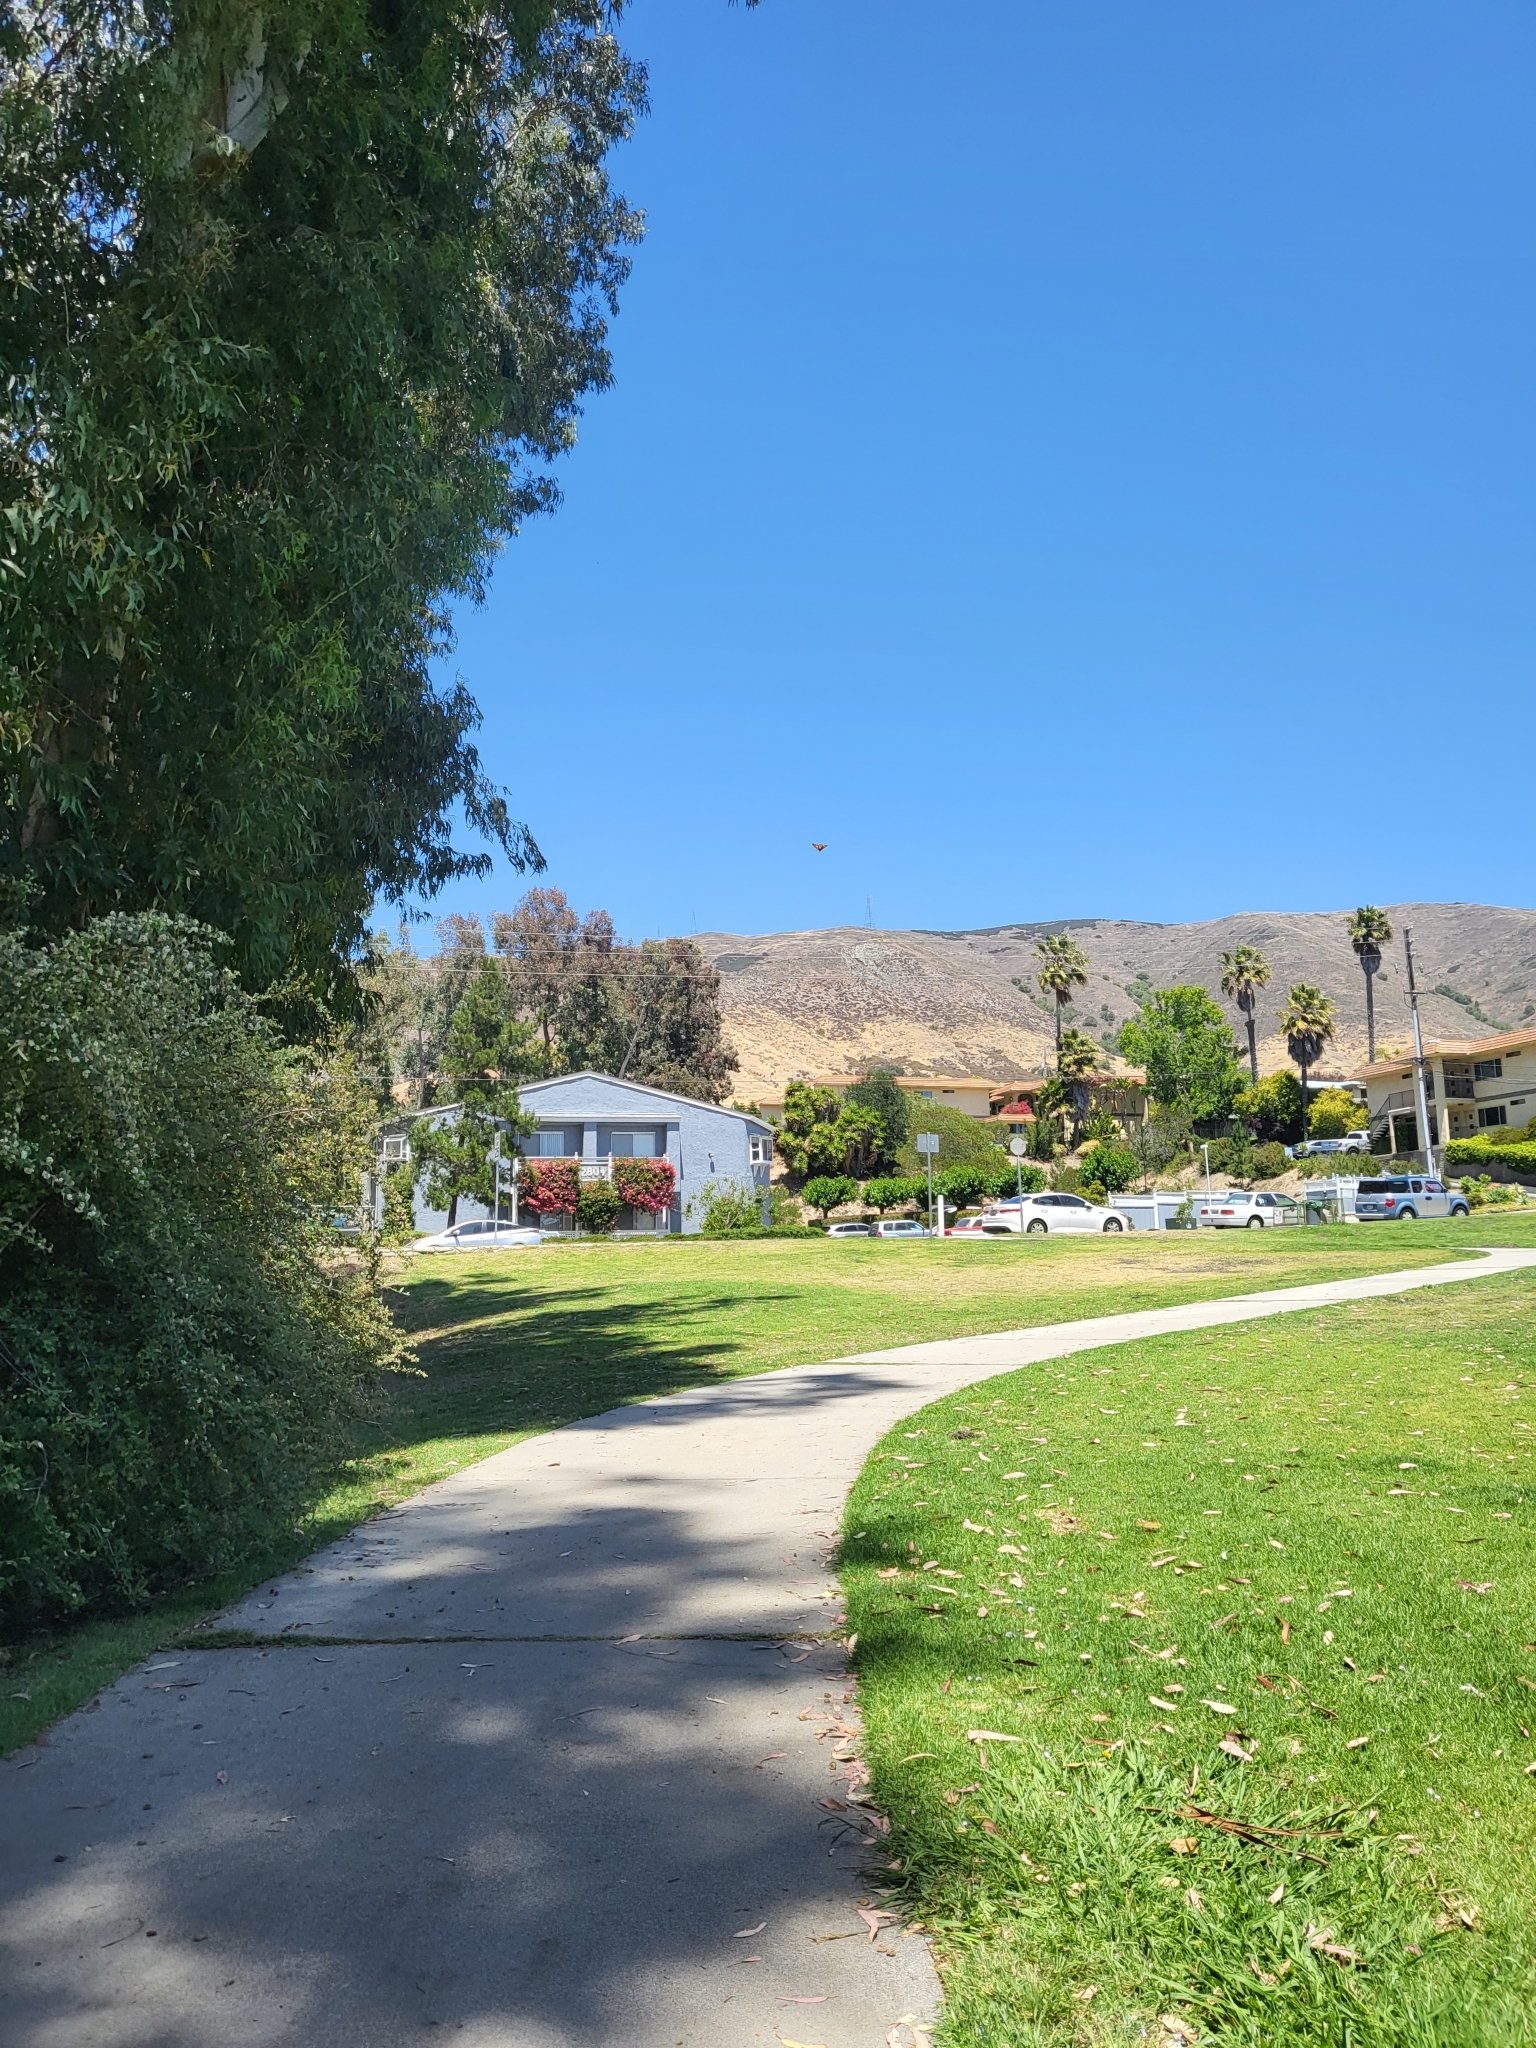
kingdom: Animalia
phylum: Arthropoda
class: Insecta
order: Lepidoptera
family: Nymphalidae
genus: Danaus
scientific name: Danaus plexippus
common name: Monarch
